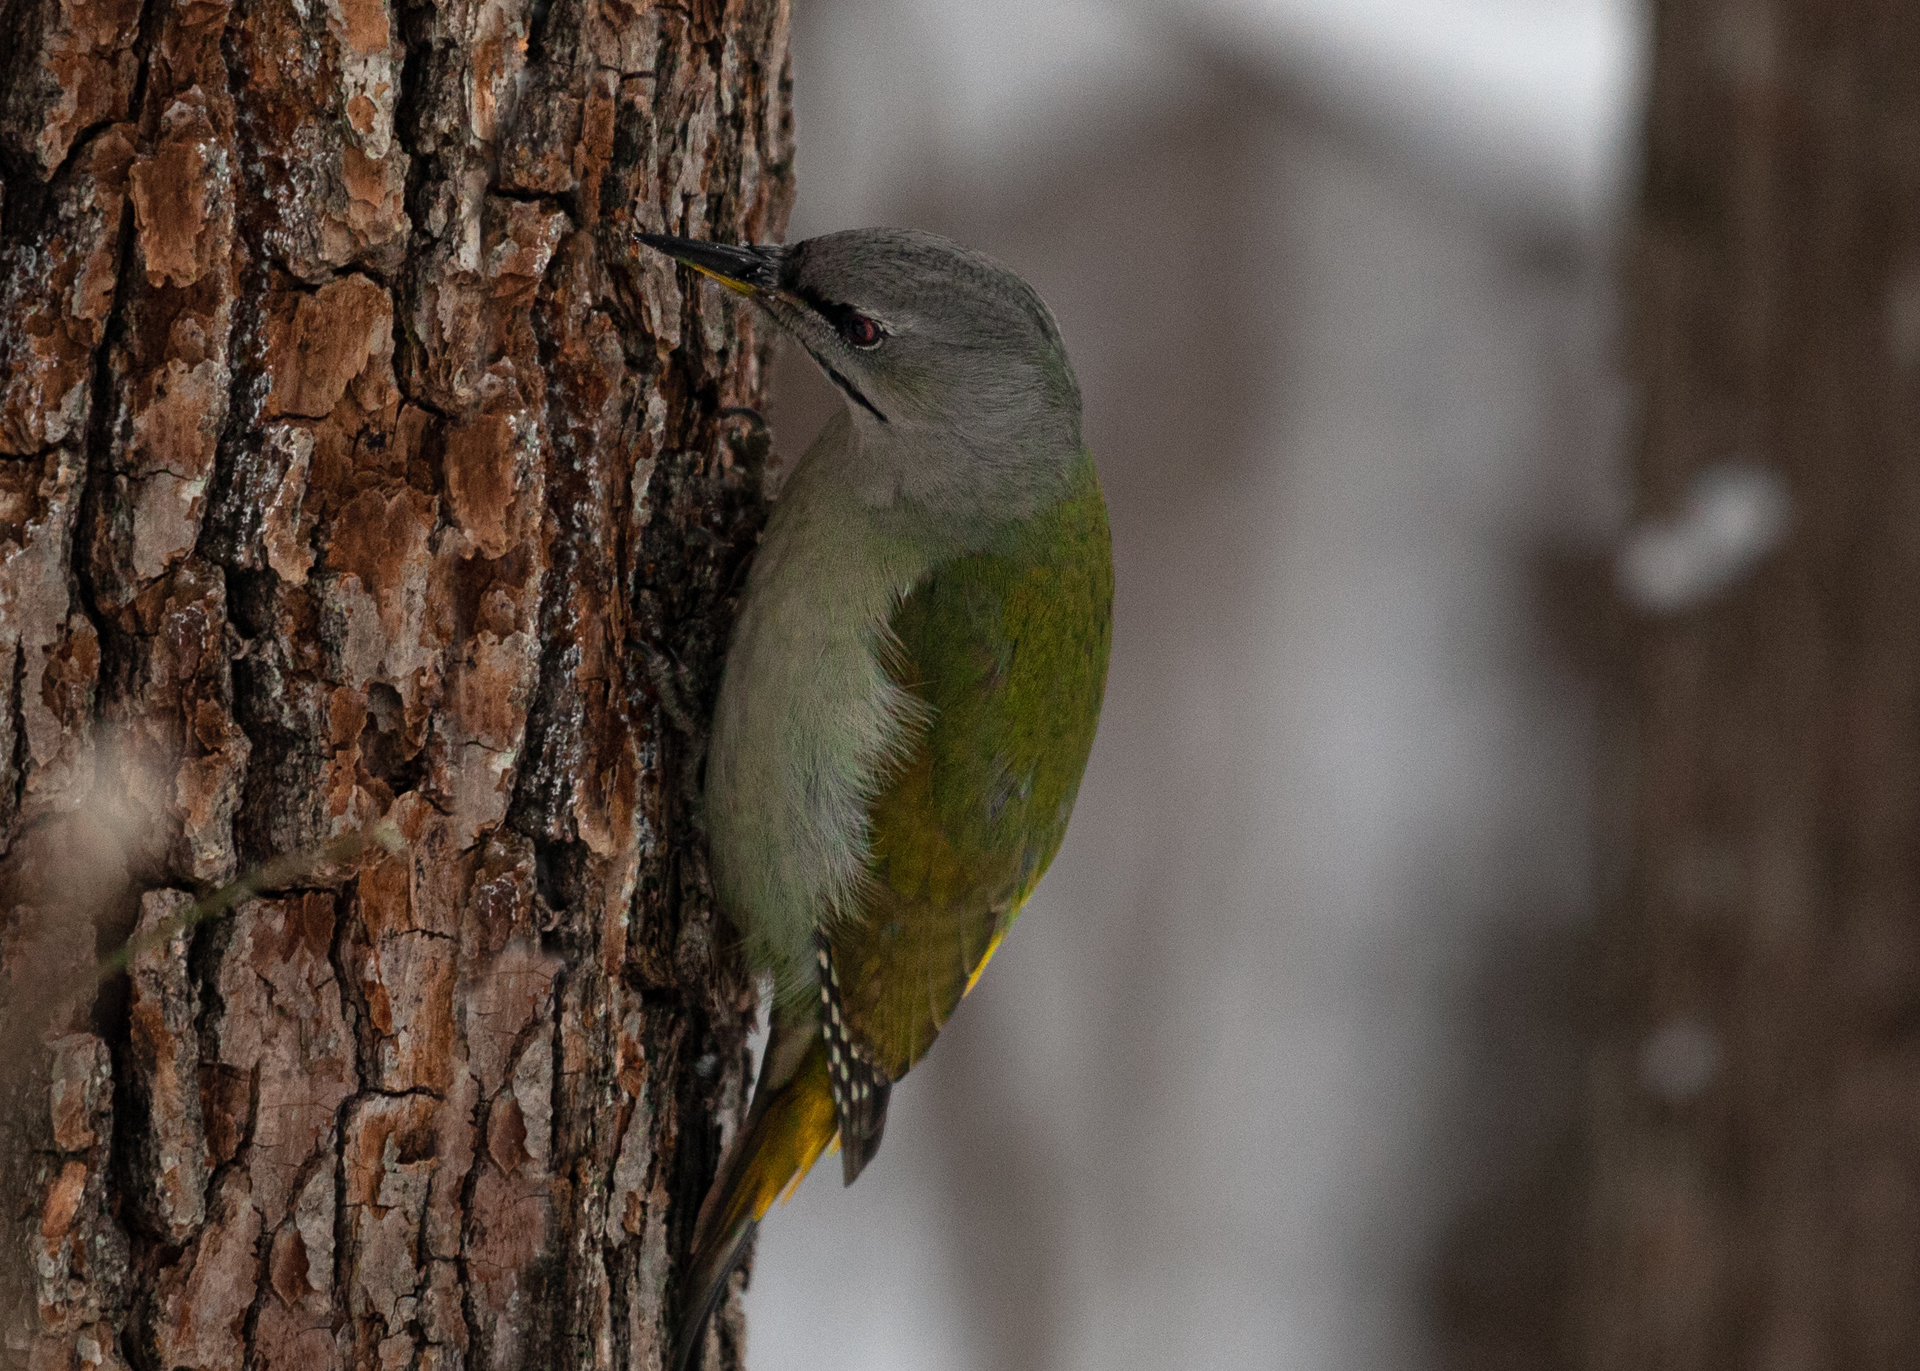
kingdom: Animalia
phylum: Chordata
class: Aves
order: Piciformes
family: Picidae
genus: Picus
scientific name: Picus canus
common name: Grey-headed woodpecker
